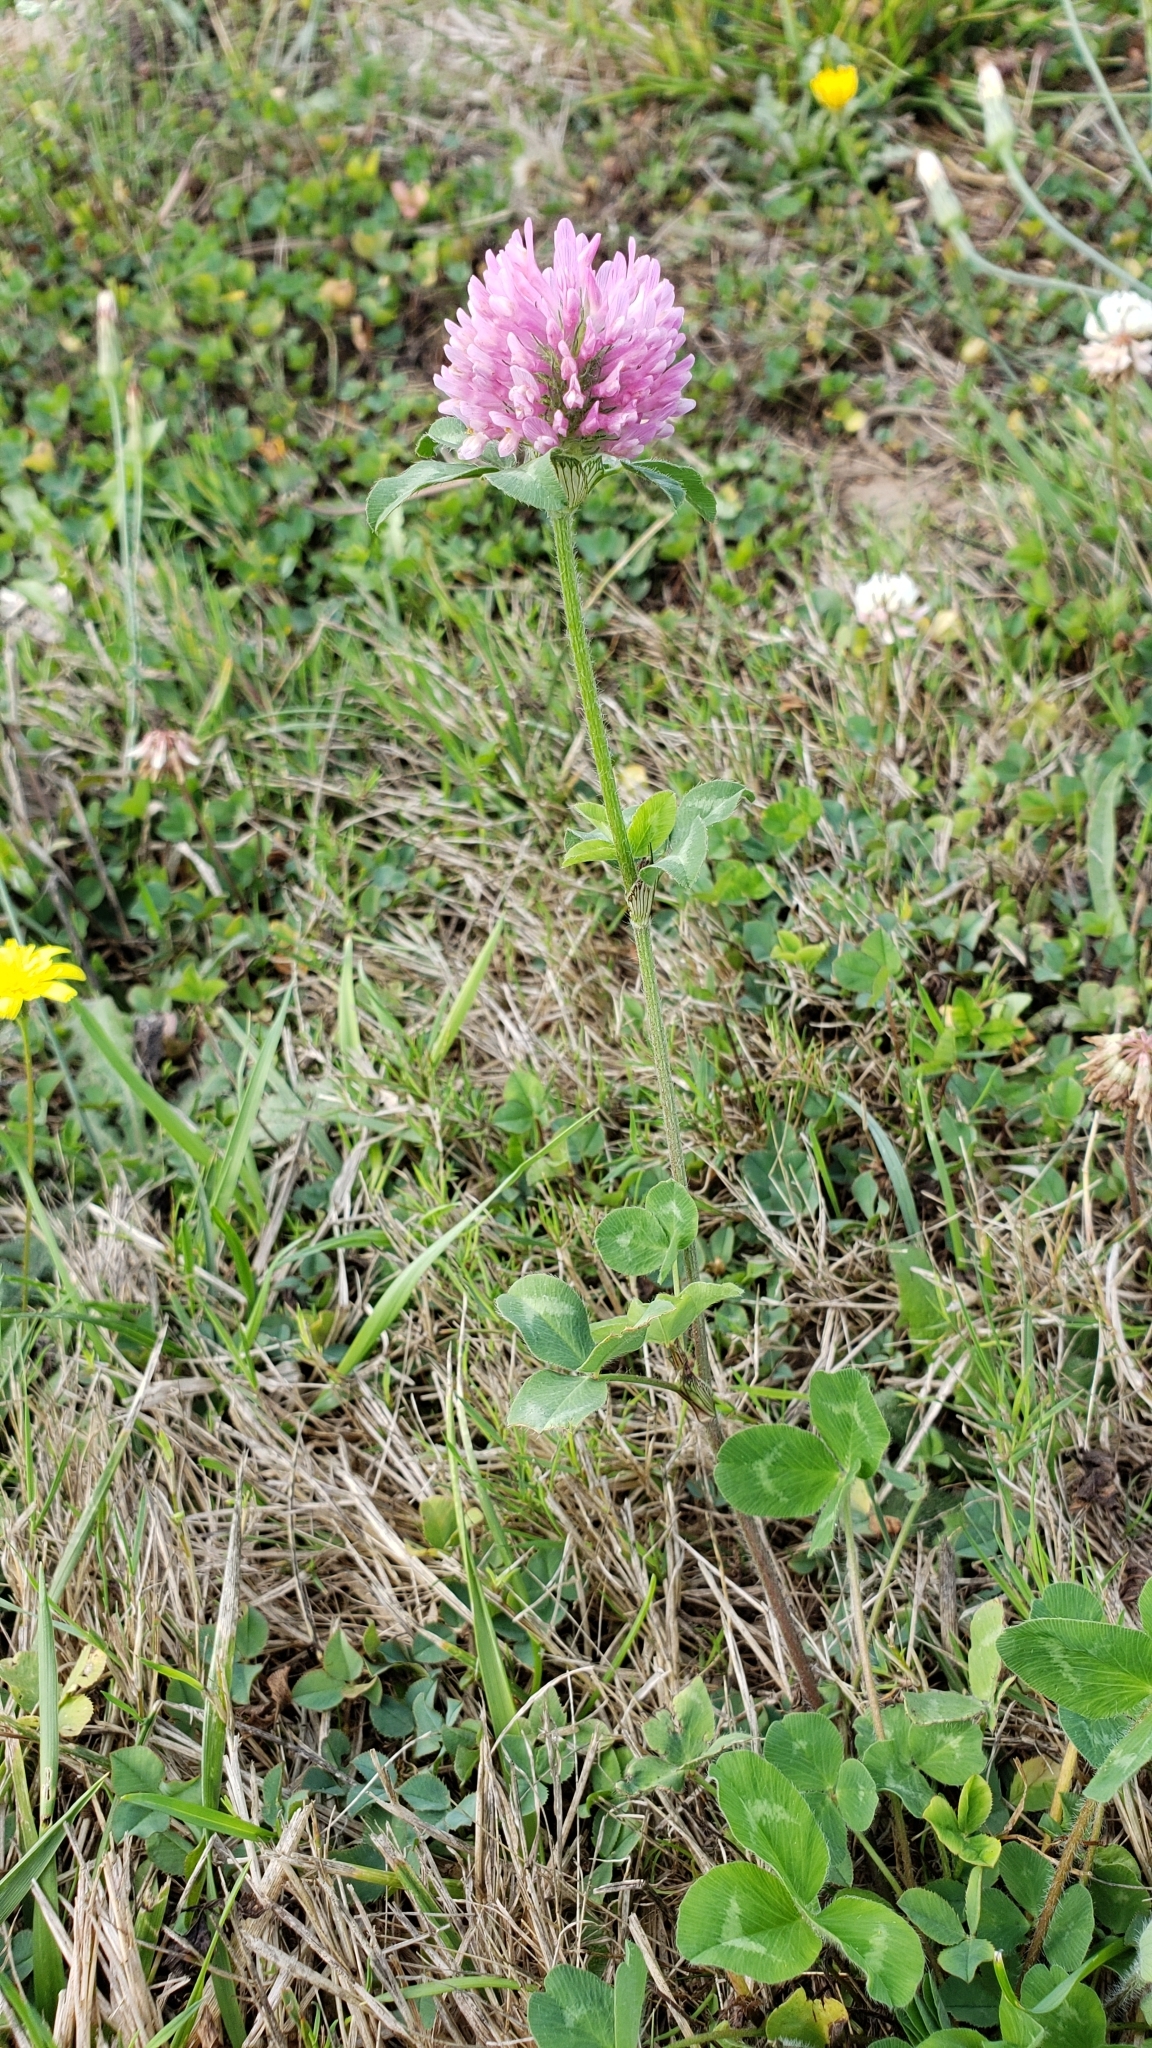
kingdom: Plantae
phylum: Tracheophyta
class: Magnoliopsida
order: Fabales
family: Fabaceae
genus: Trifolium
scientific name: Trifolium pratense
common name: Red clover
